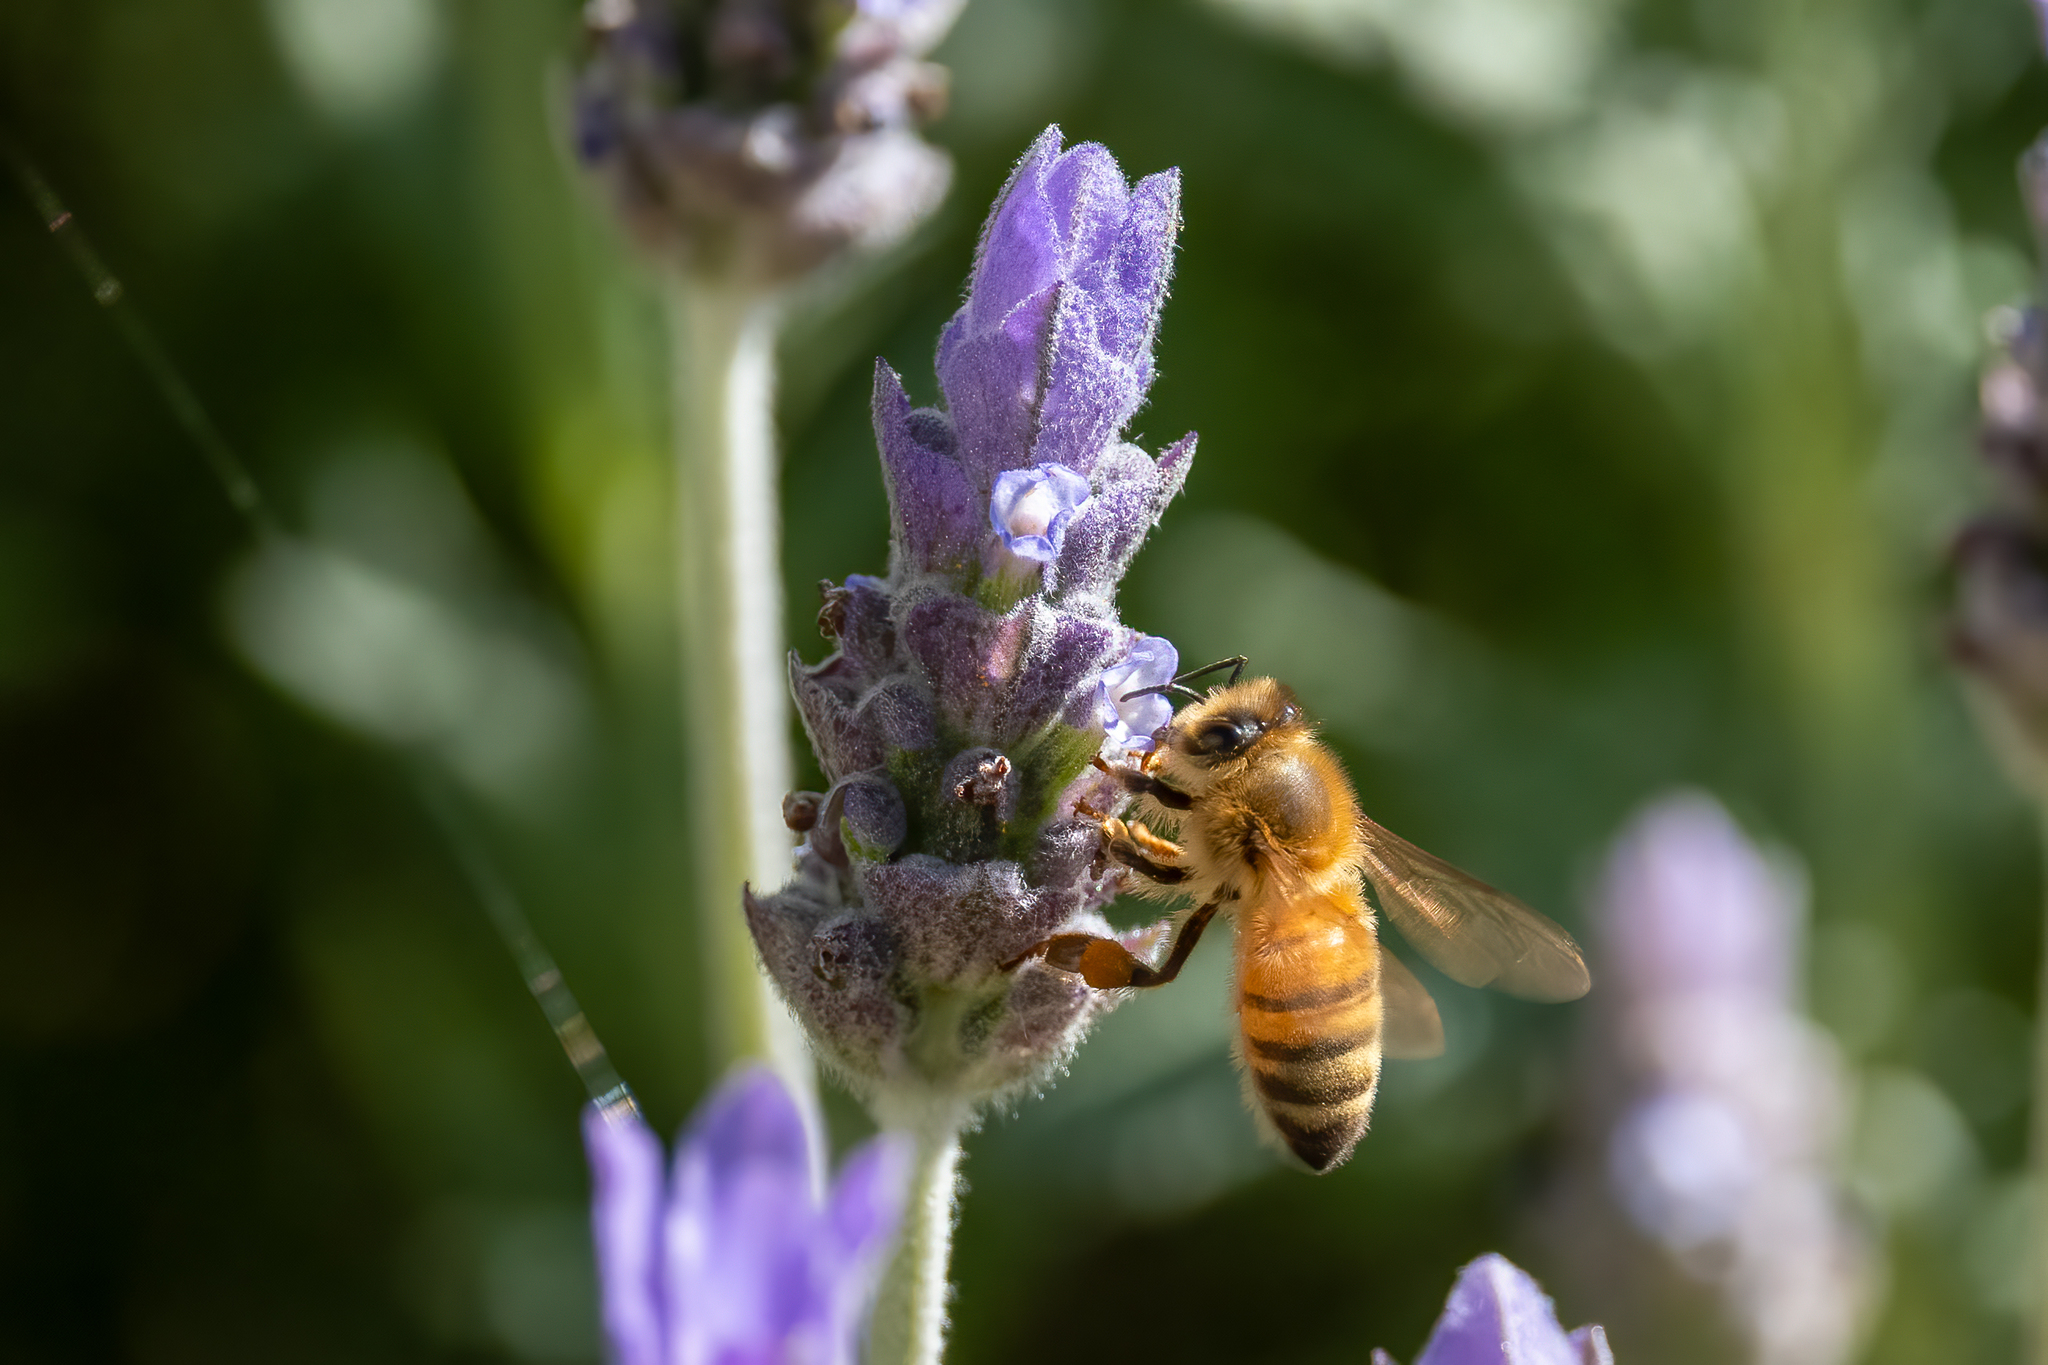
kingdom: Animalia
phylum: Arthropoda
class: Insecta
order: Hymenoptera
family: Apidae
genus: Apis
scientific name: Apis mellifera
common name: Honey bee
